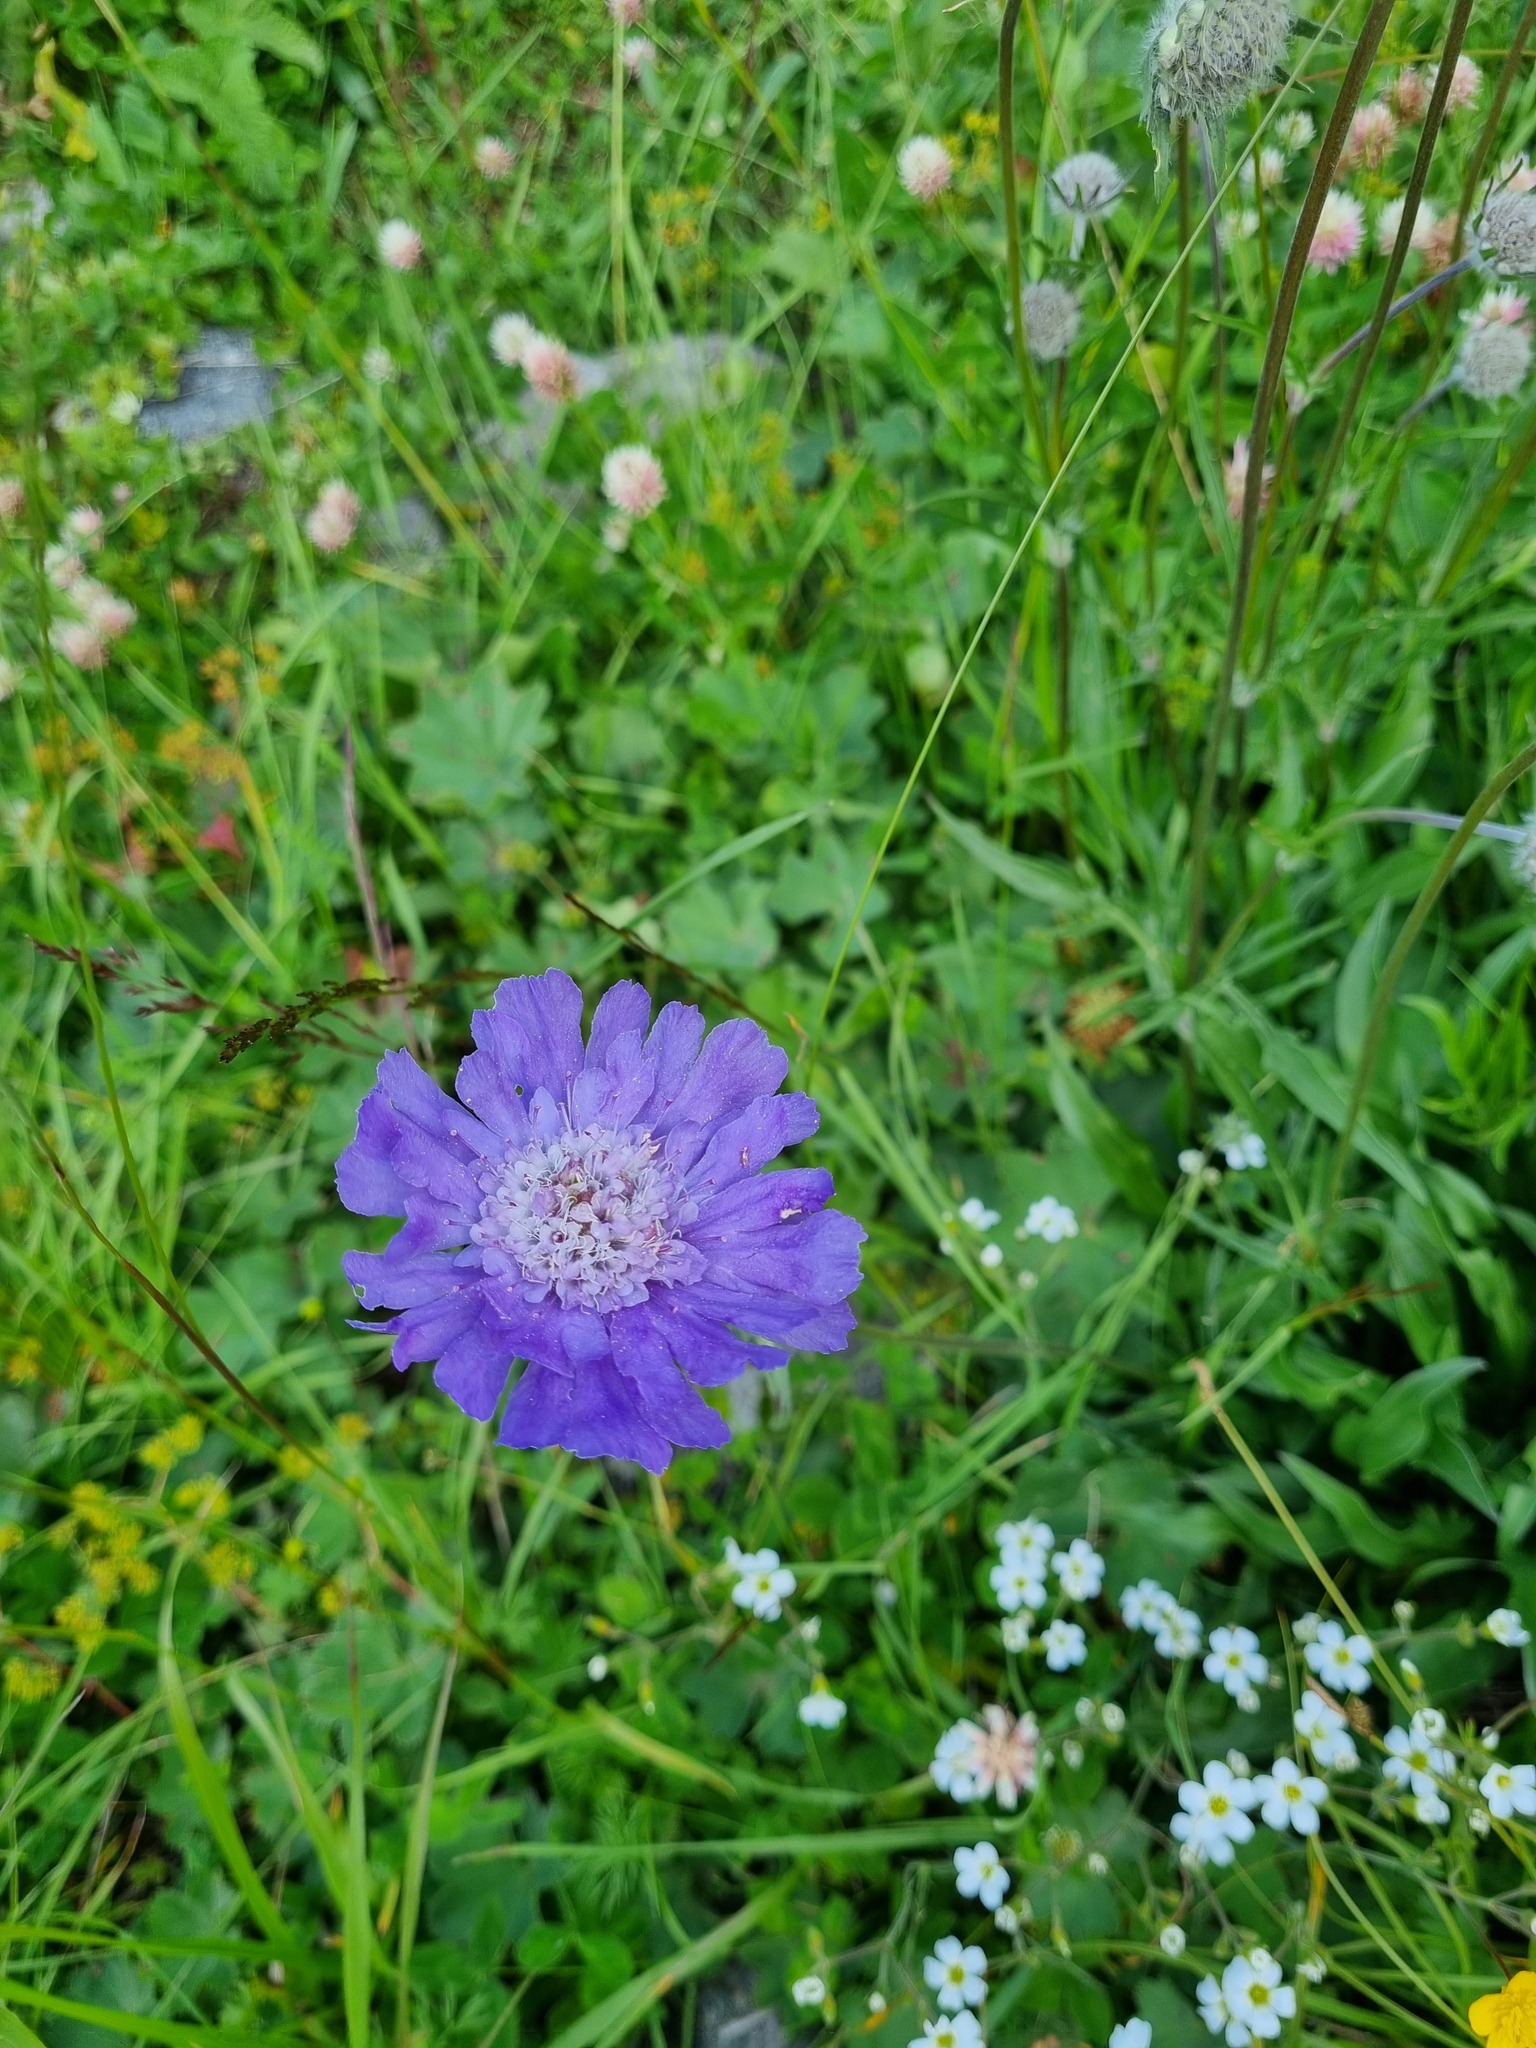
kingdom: Plantae
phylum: Tracheophyta
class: Magnoliopsida
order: Dipsacales
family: Caprifoliaceae
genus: Lomelosia
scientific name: Lomelosia caucasica
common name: Pincushion-flower
